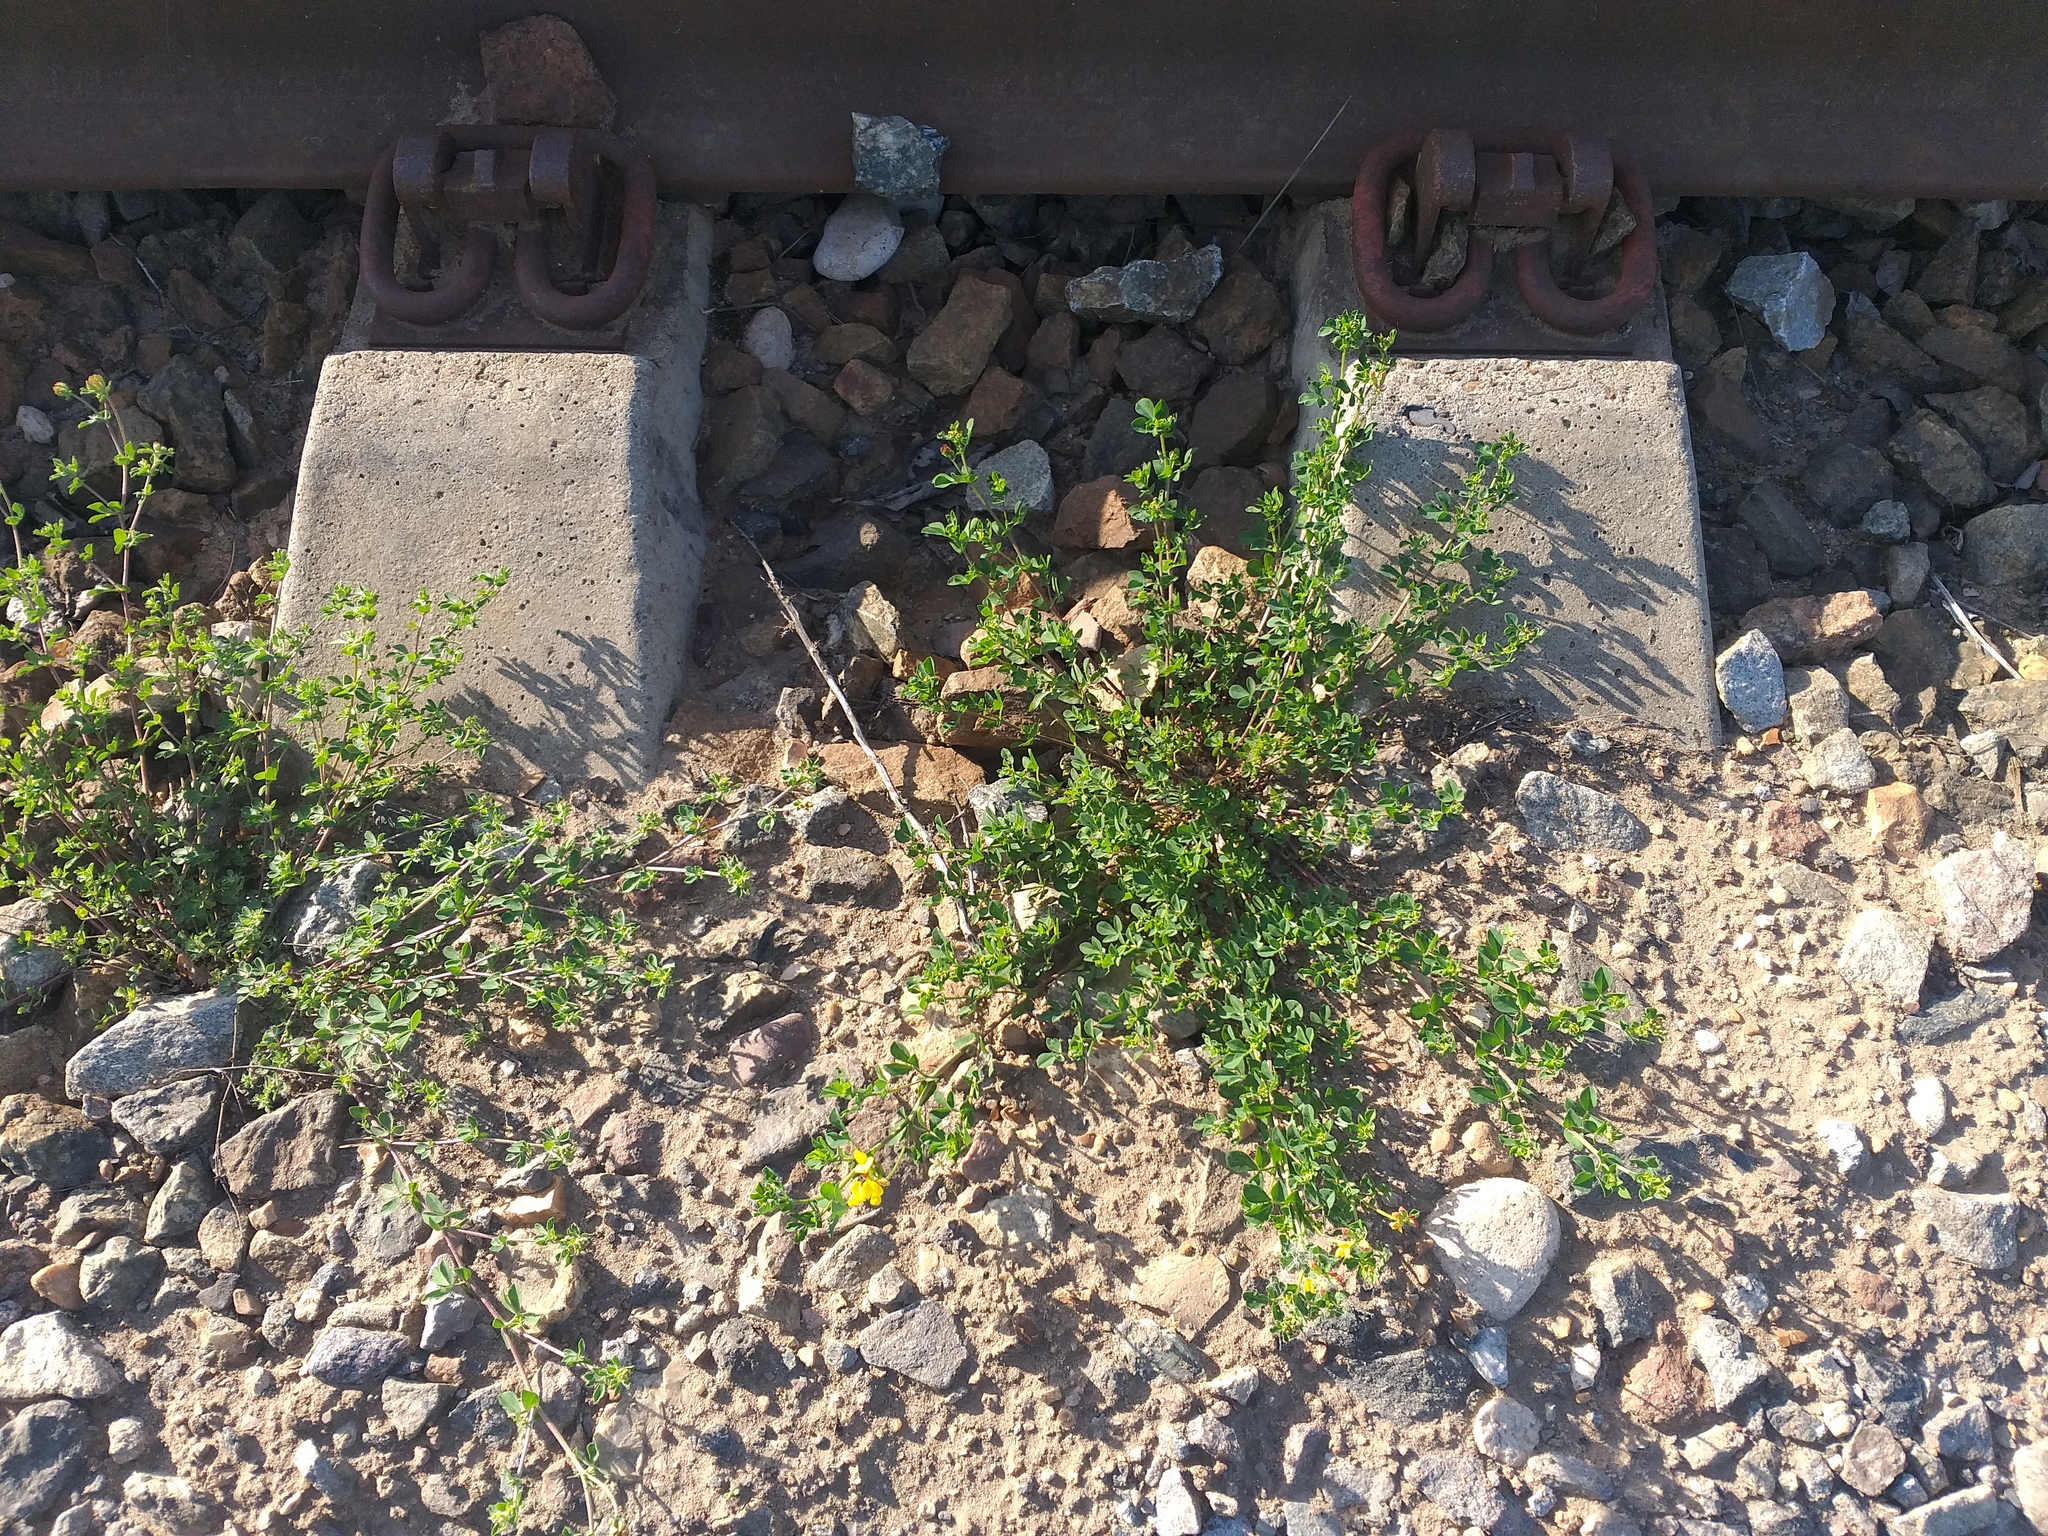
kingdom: Plantae
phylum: Tracheophyta
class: Magnoliopsida
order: Fabales
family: Fabaceae
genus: Lotus
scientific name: Lotus corniculatus
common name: Common bird's-foot-trefoil
